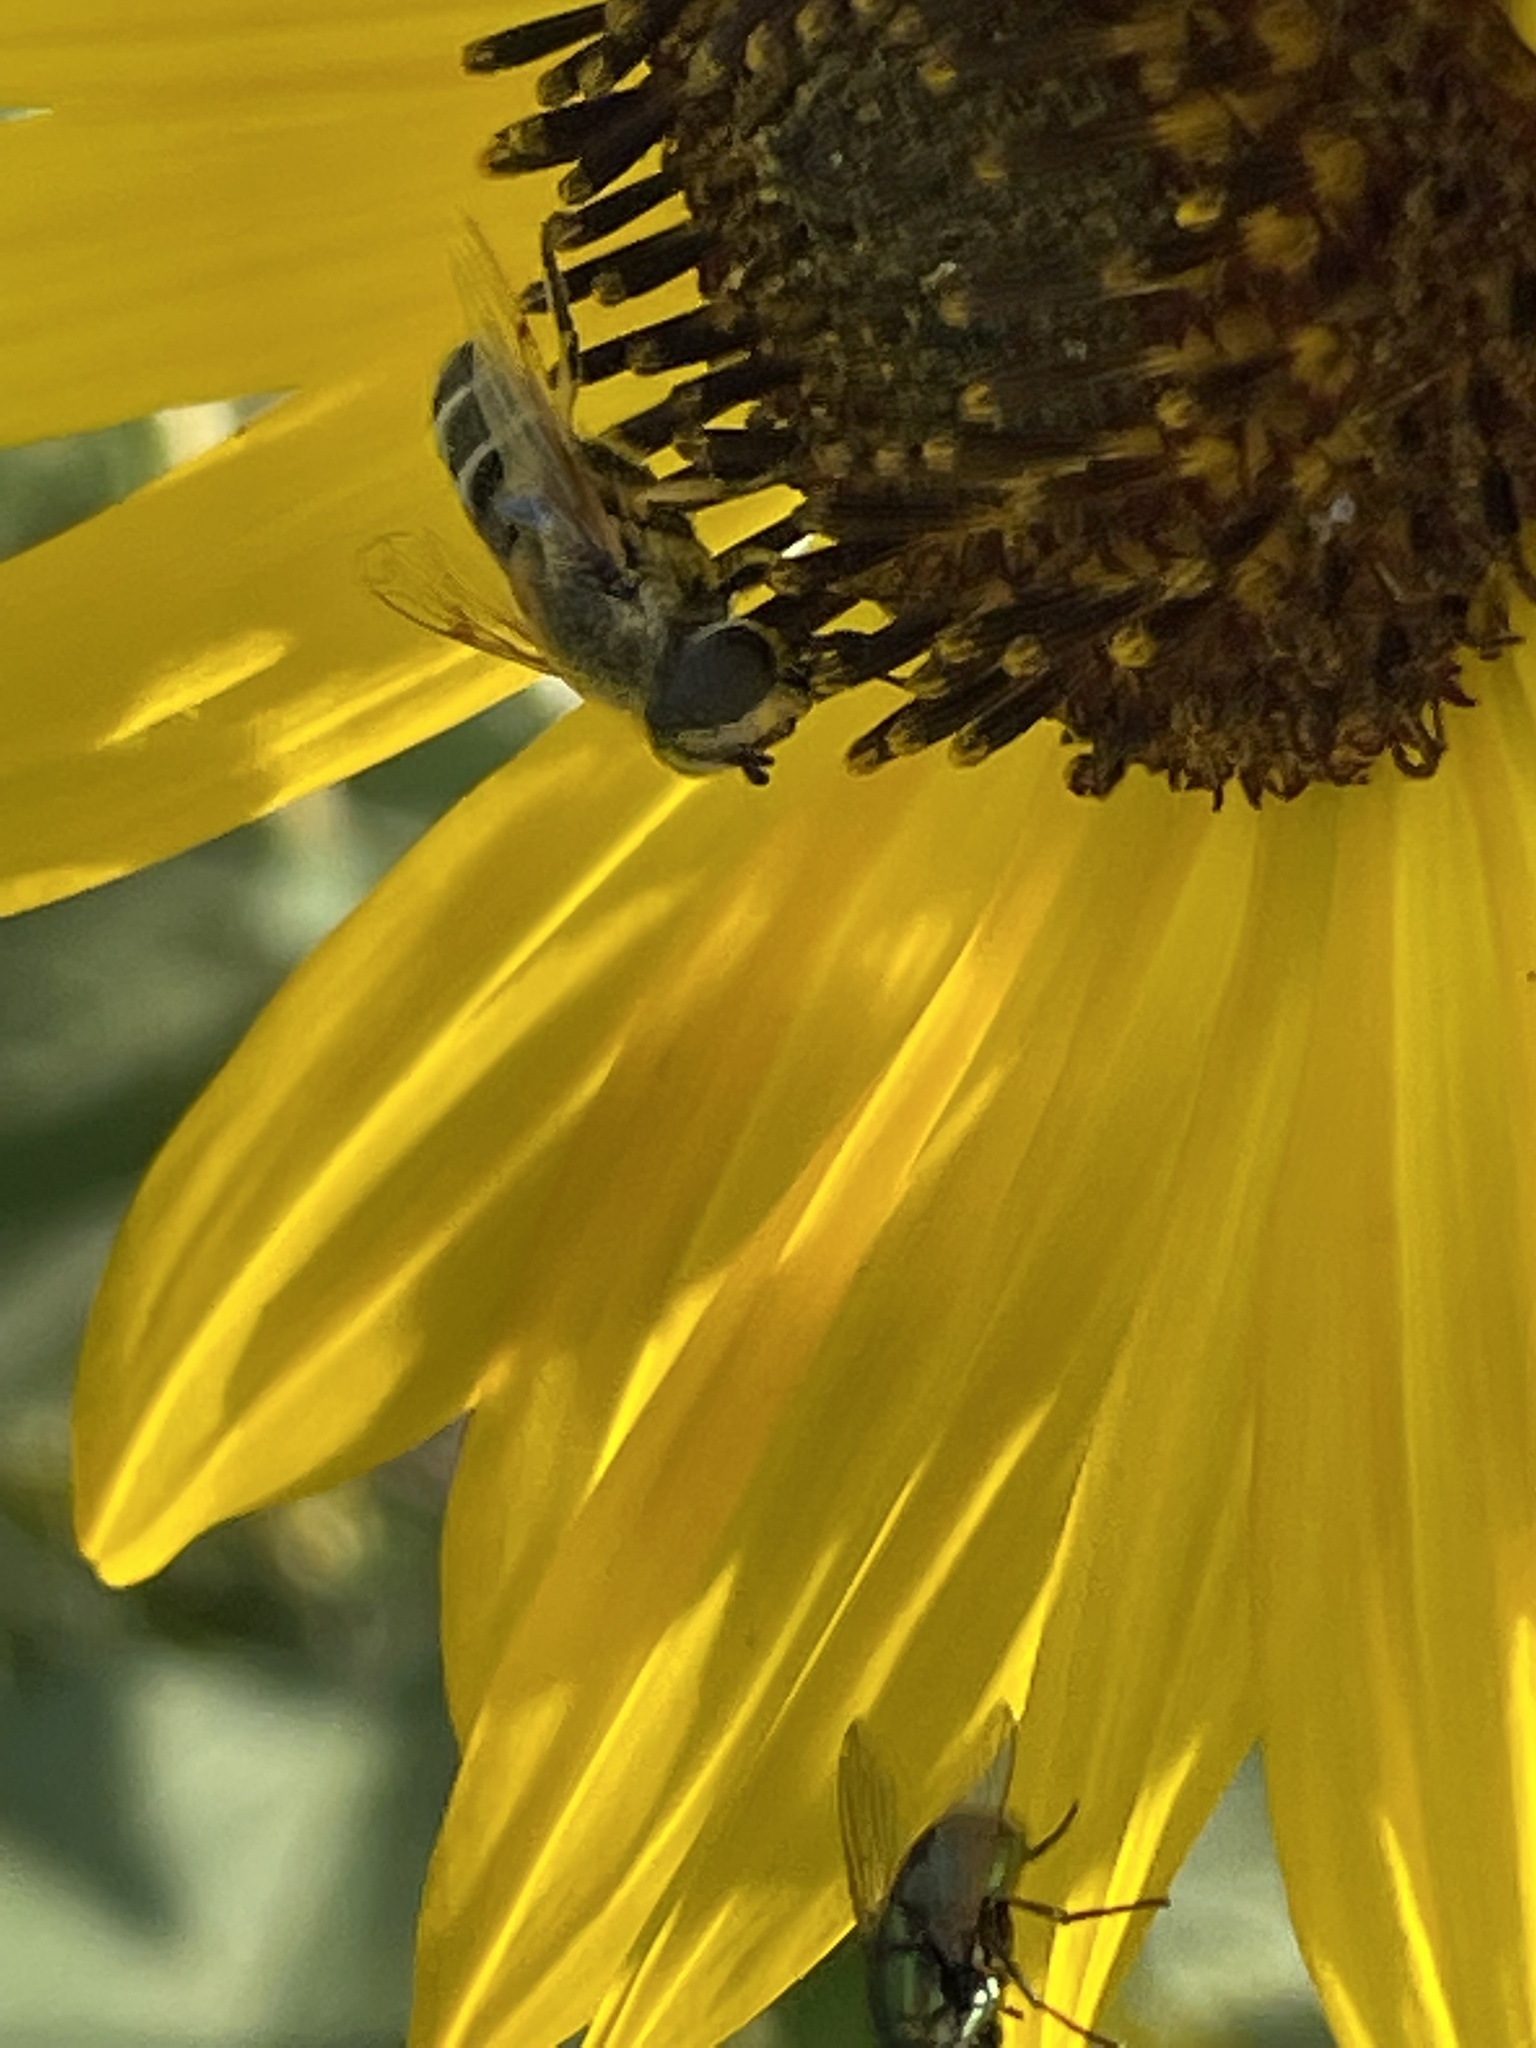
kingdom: Animalia
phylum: Arthropoda
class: Insecta
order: Diptera
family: Syrphidae
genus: Eristalis
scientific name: Eristalis stipator
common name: Yellow-shouldered drone fly
